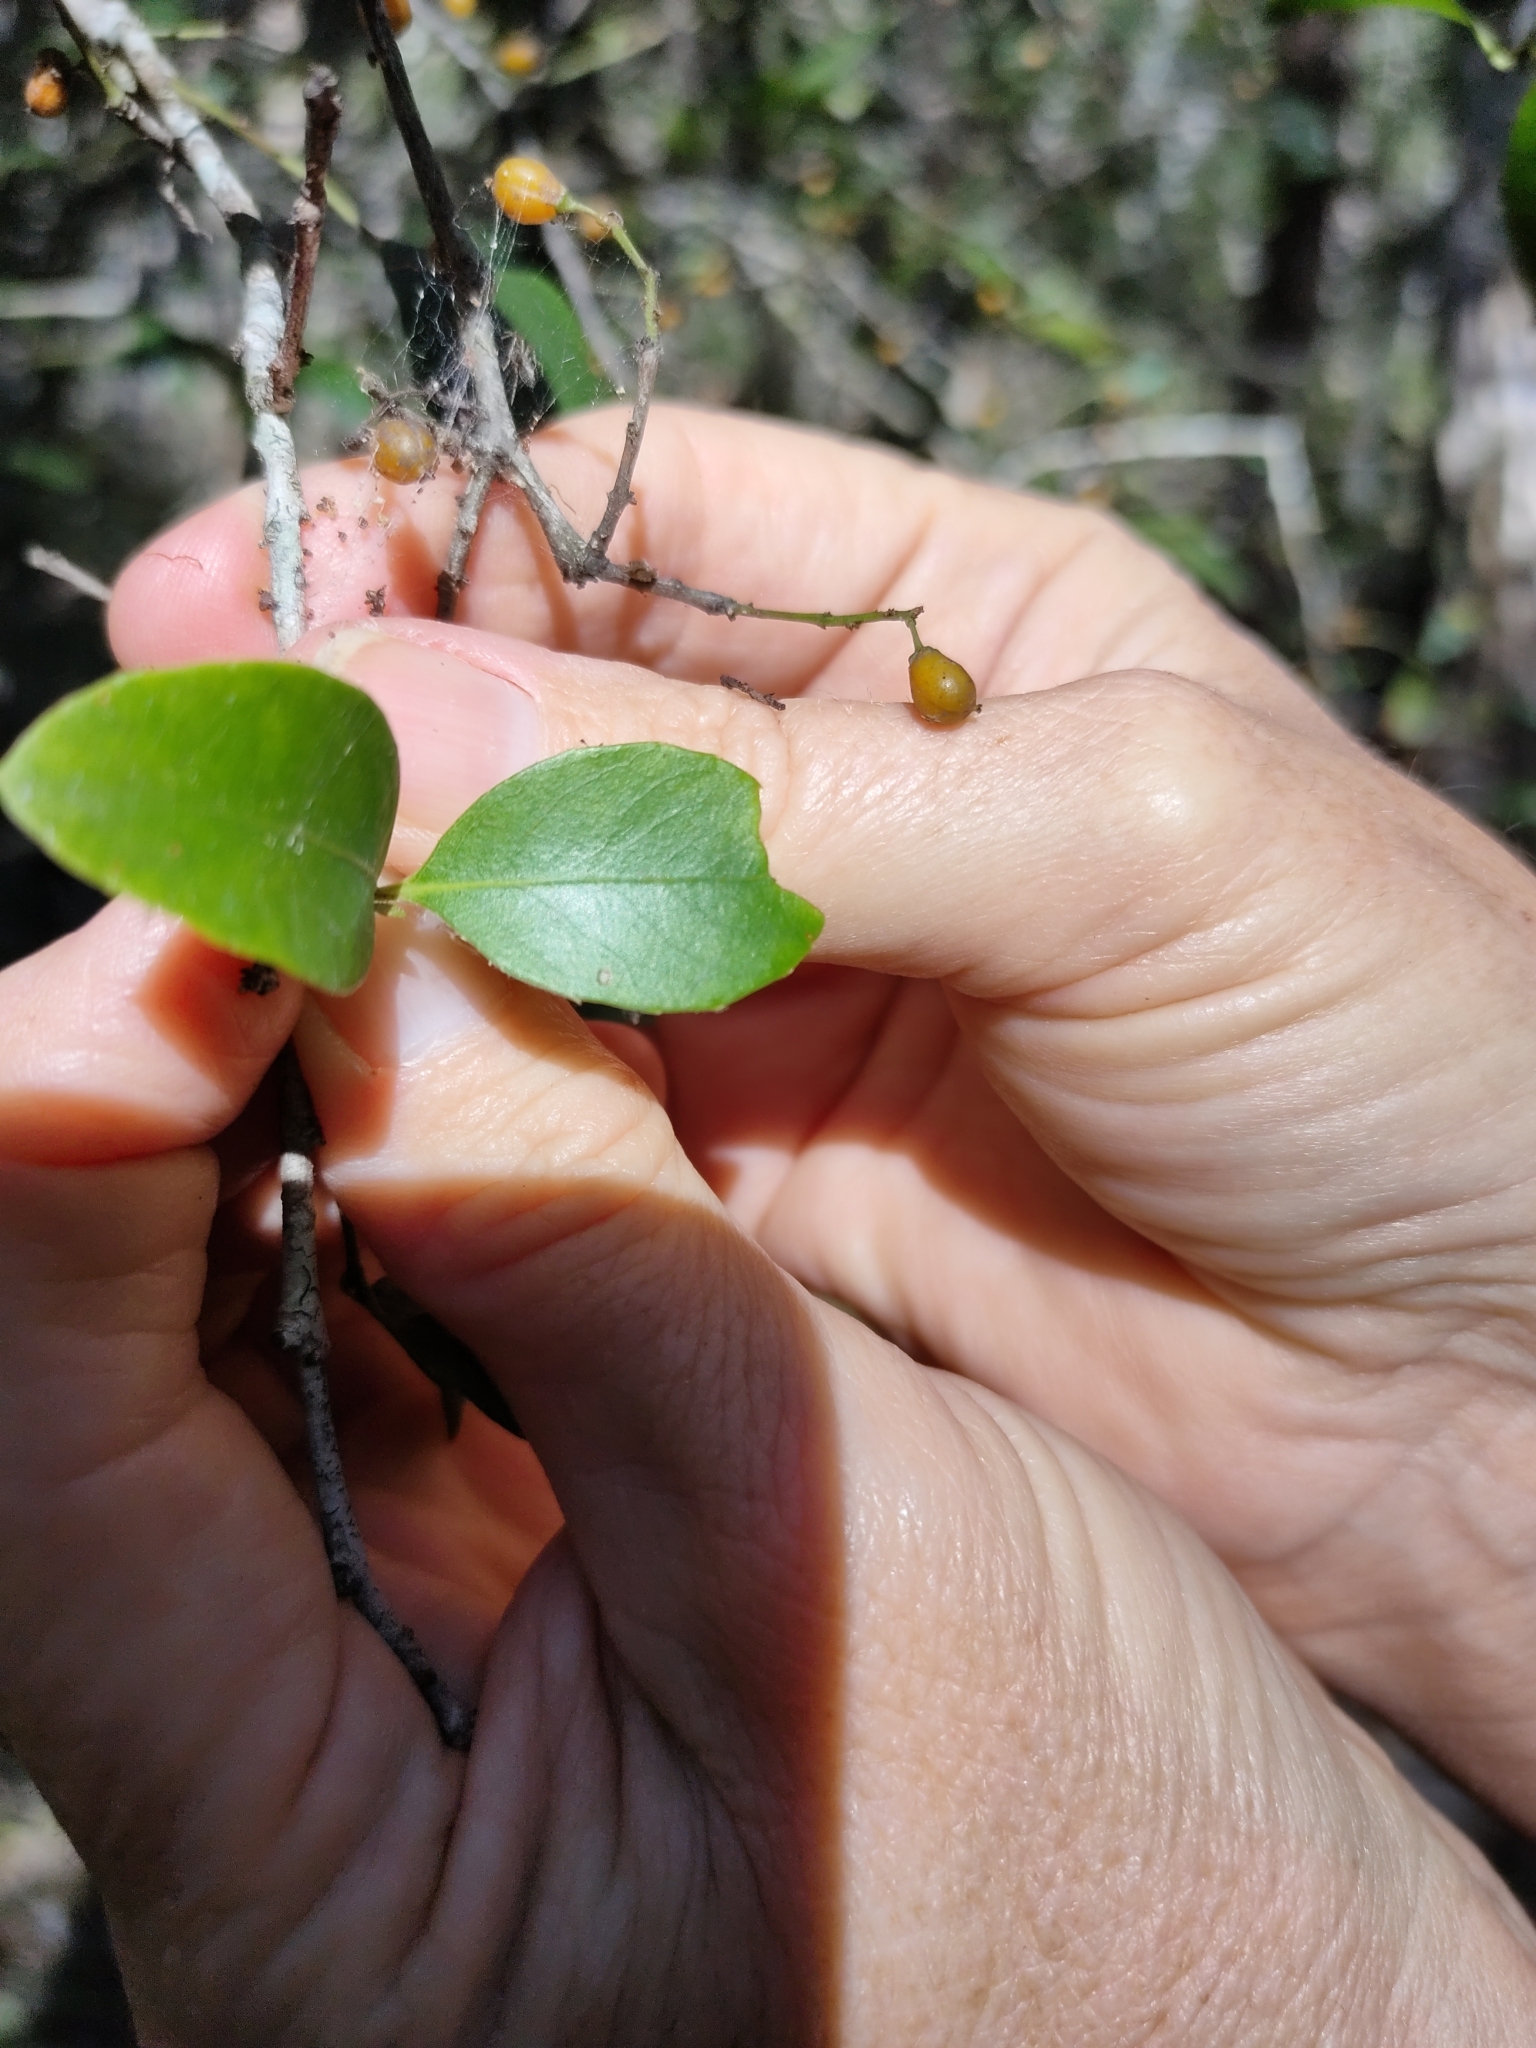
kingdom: Plantae
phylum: Tracheophyta
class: Magnoliopsida
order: Sapindales
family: Rutaceae
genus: Acronychia
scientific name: Acronychia laevis
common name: Hard aspen
